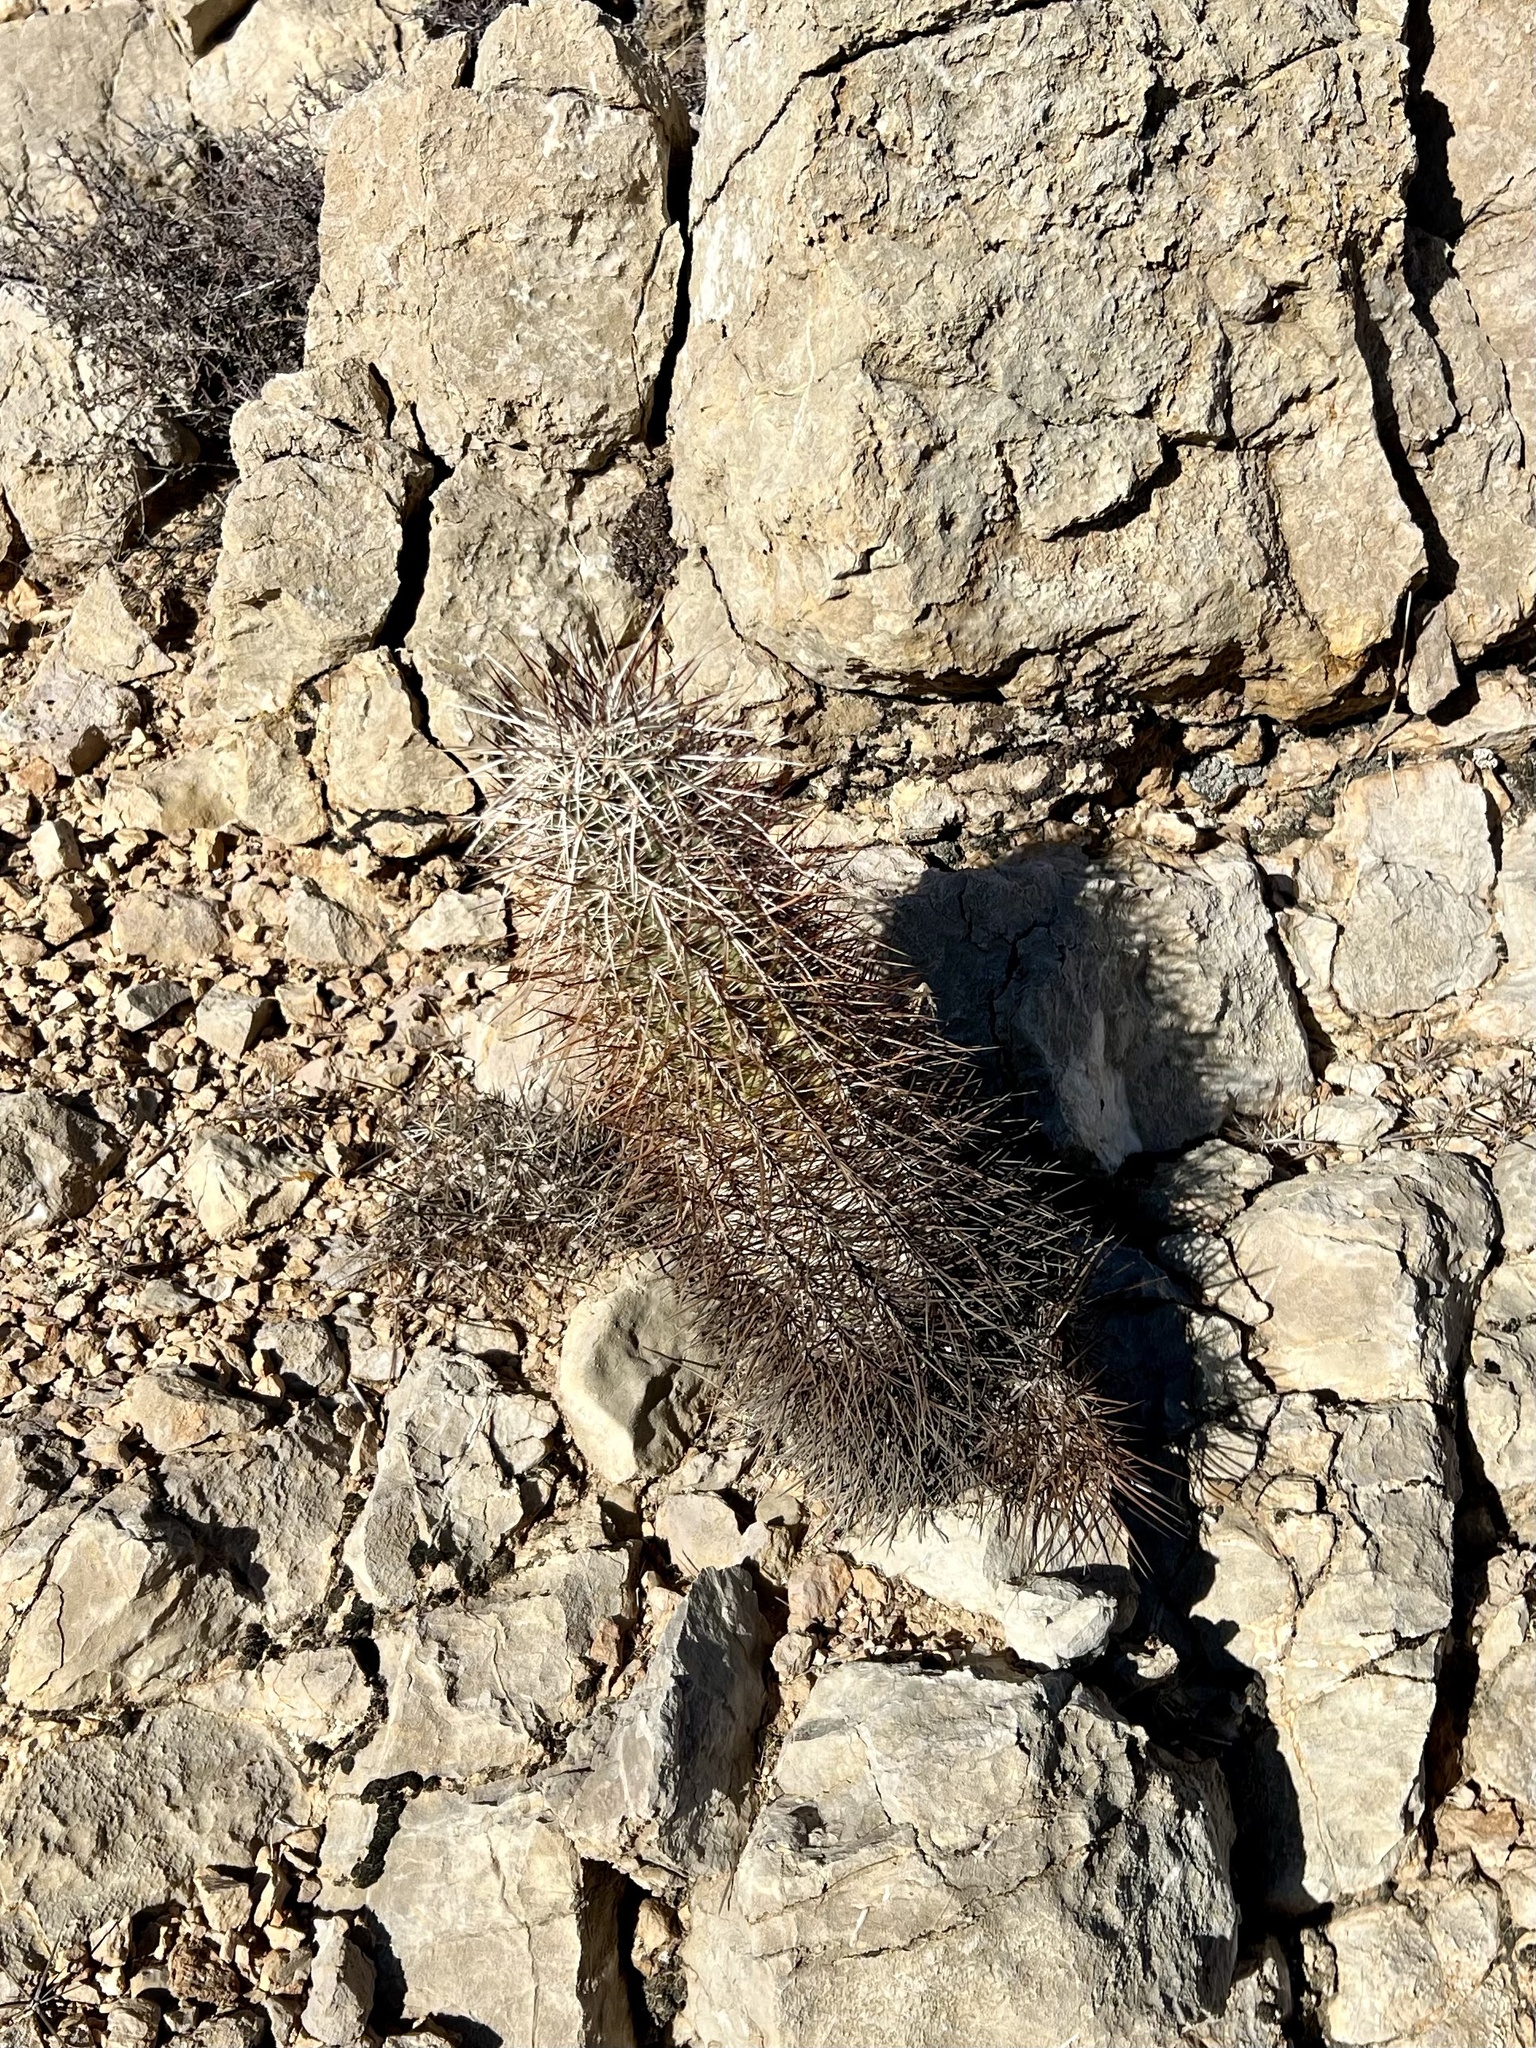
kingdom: Plantae
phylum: Tracheophyta
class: Magnoliopsida
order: Caryophyllales
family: Cactaceae
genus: Echinocereus
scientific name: Echinocereus engelmannii
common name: Engelmann's hedgehog cactus
